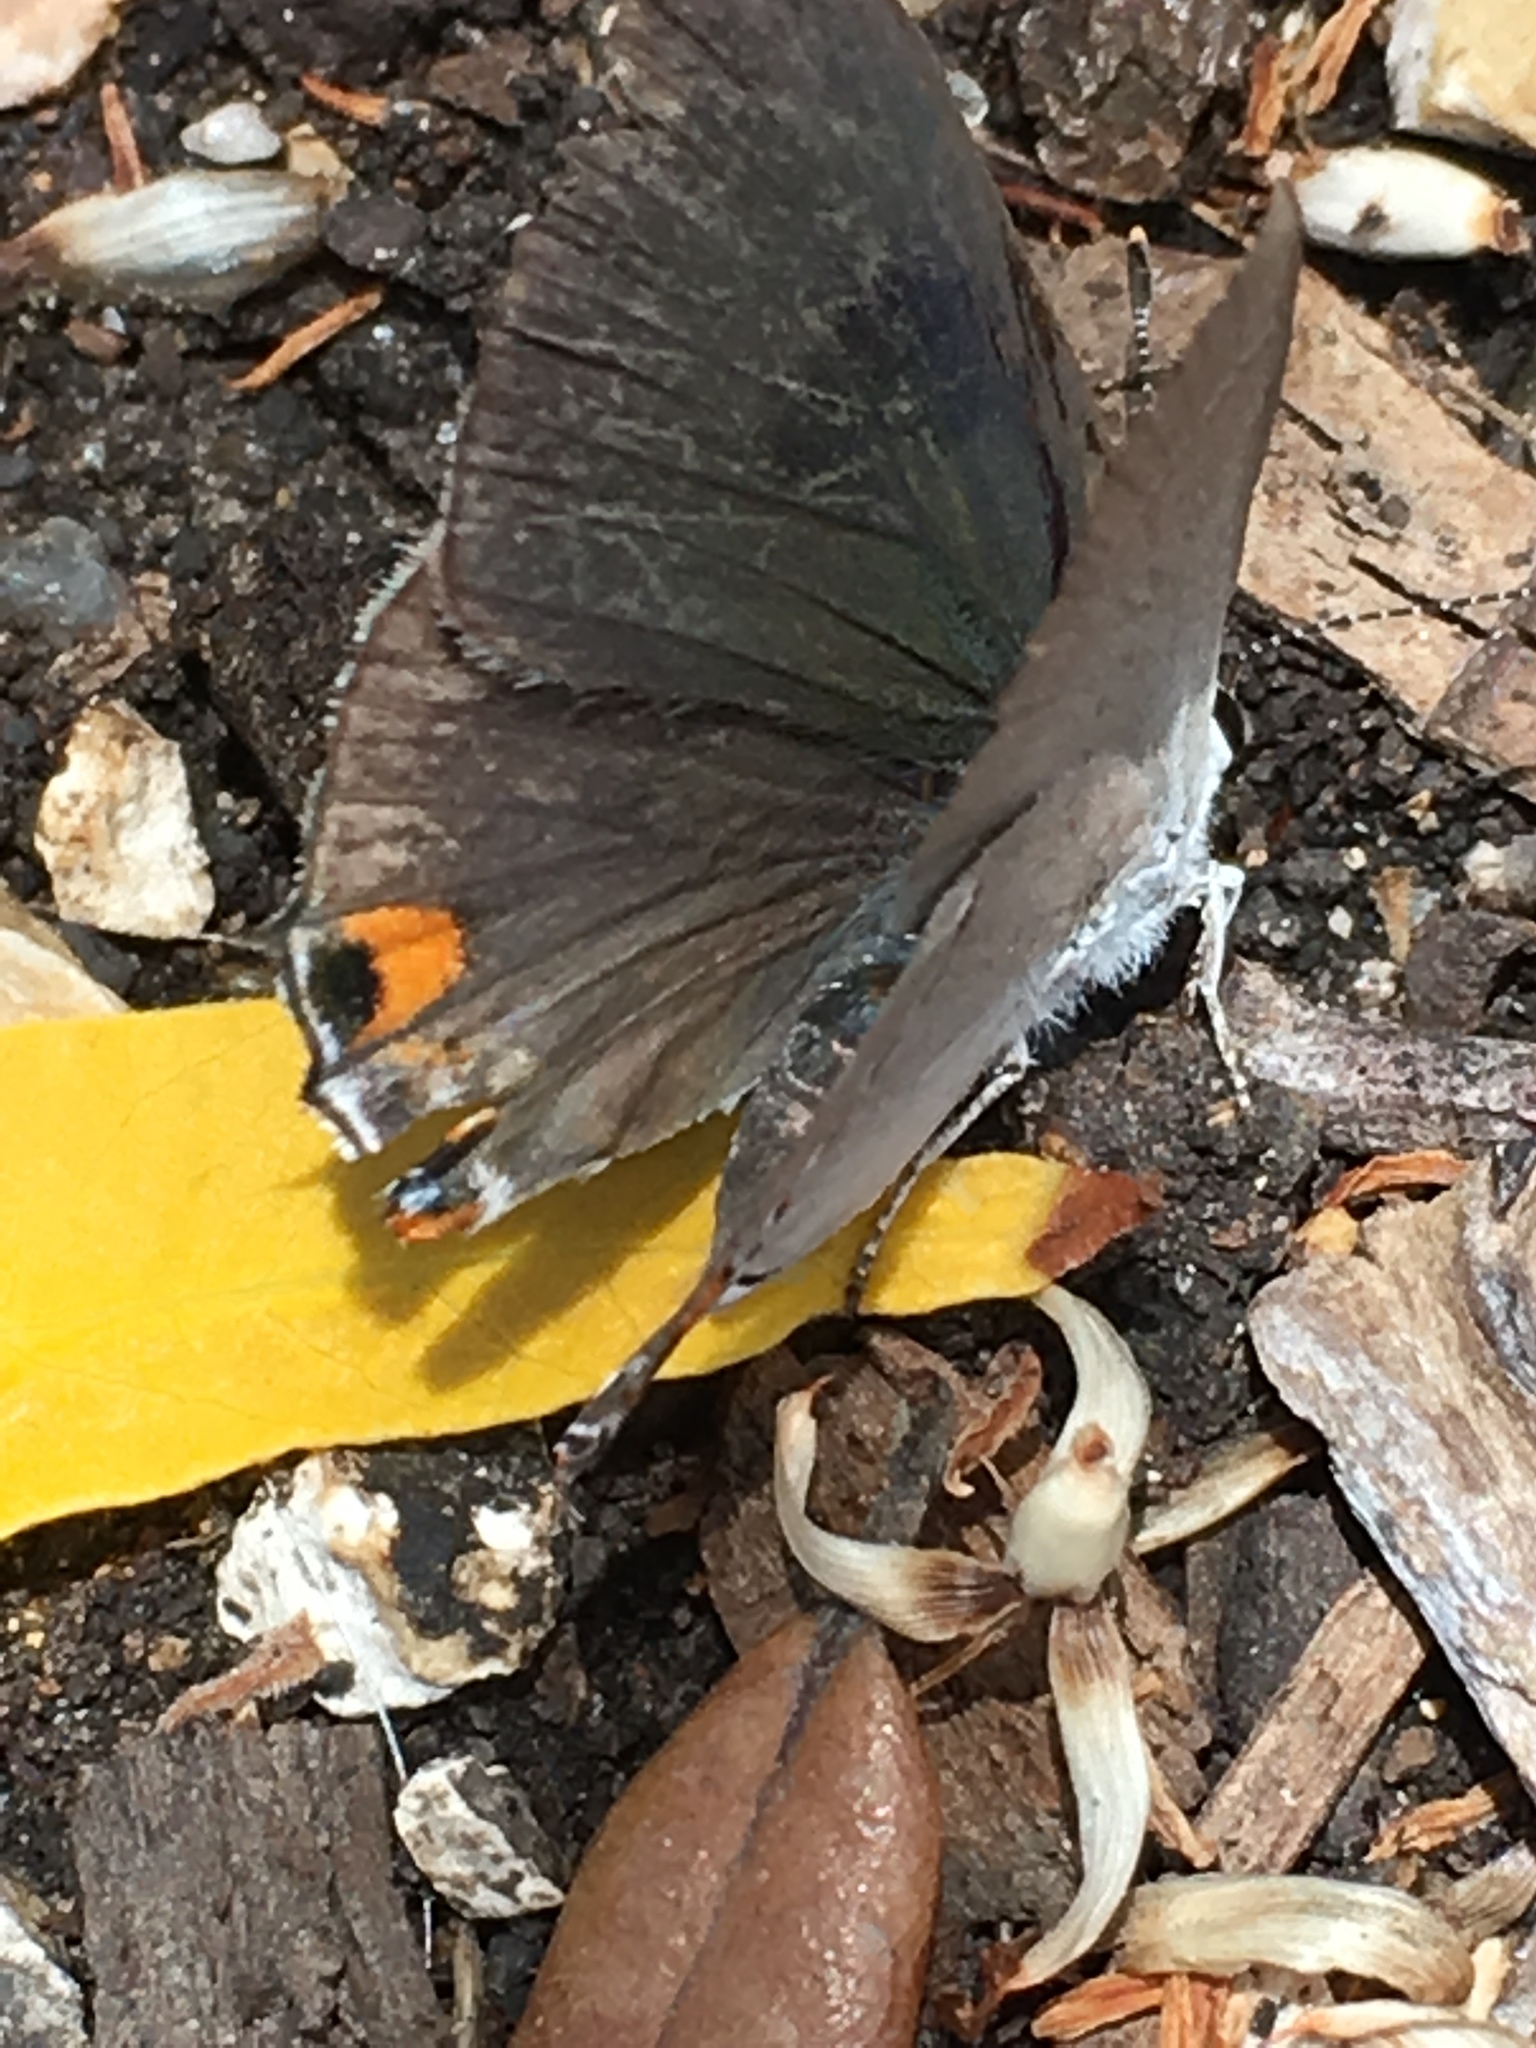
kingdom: Animalia
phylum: Arthropoda
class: Insecta
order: Lepidoptera
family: Lycaenidae
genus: Strymon
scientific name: Strymon melinus
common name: Gray hairstreak
